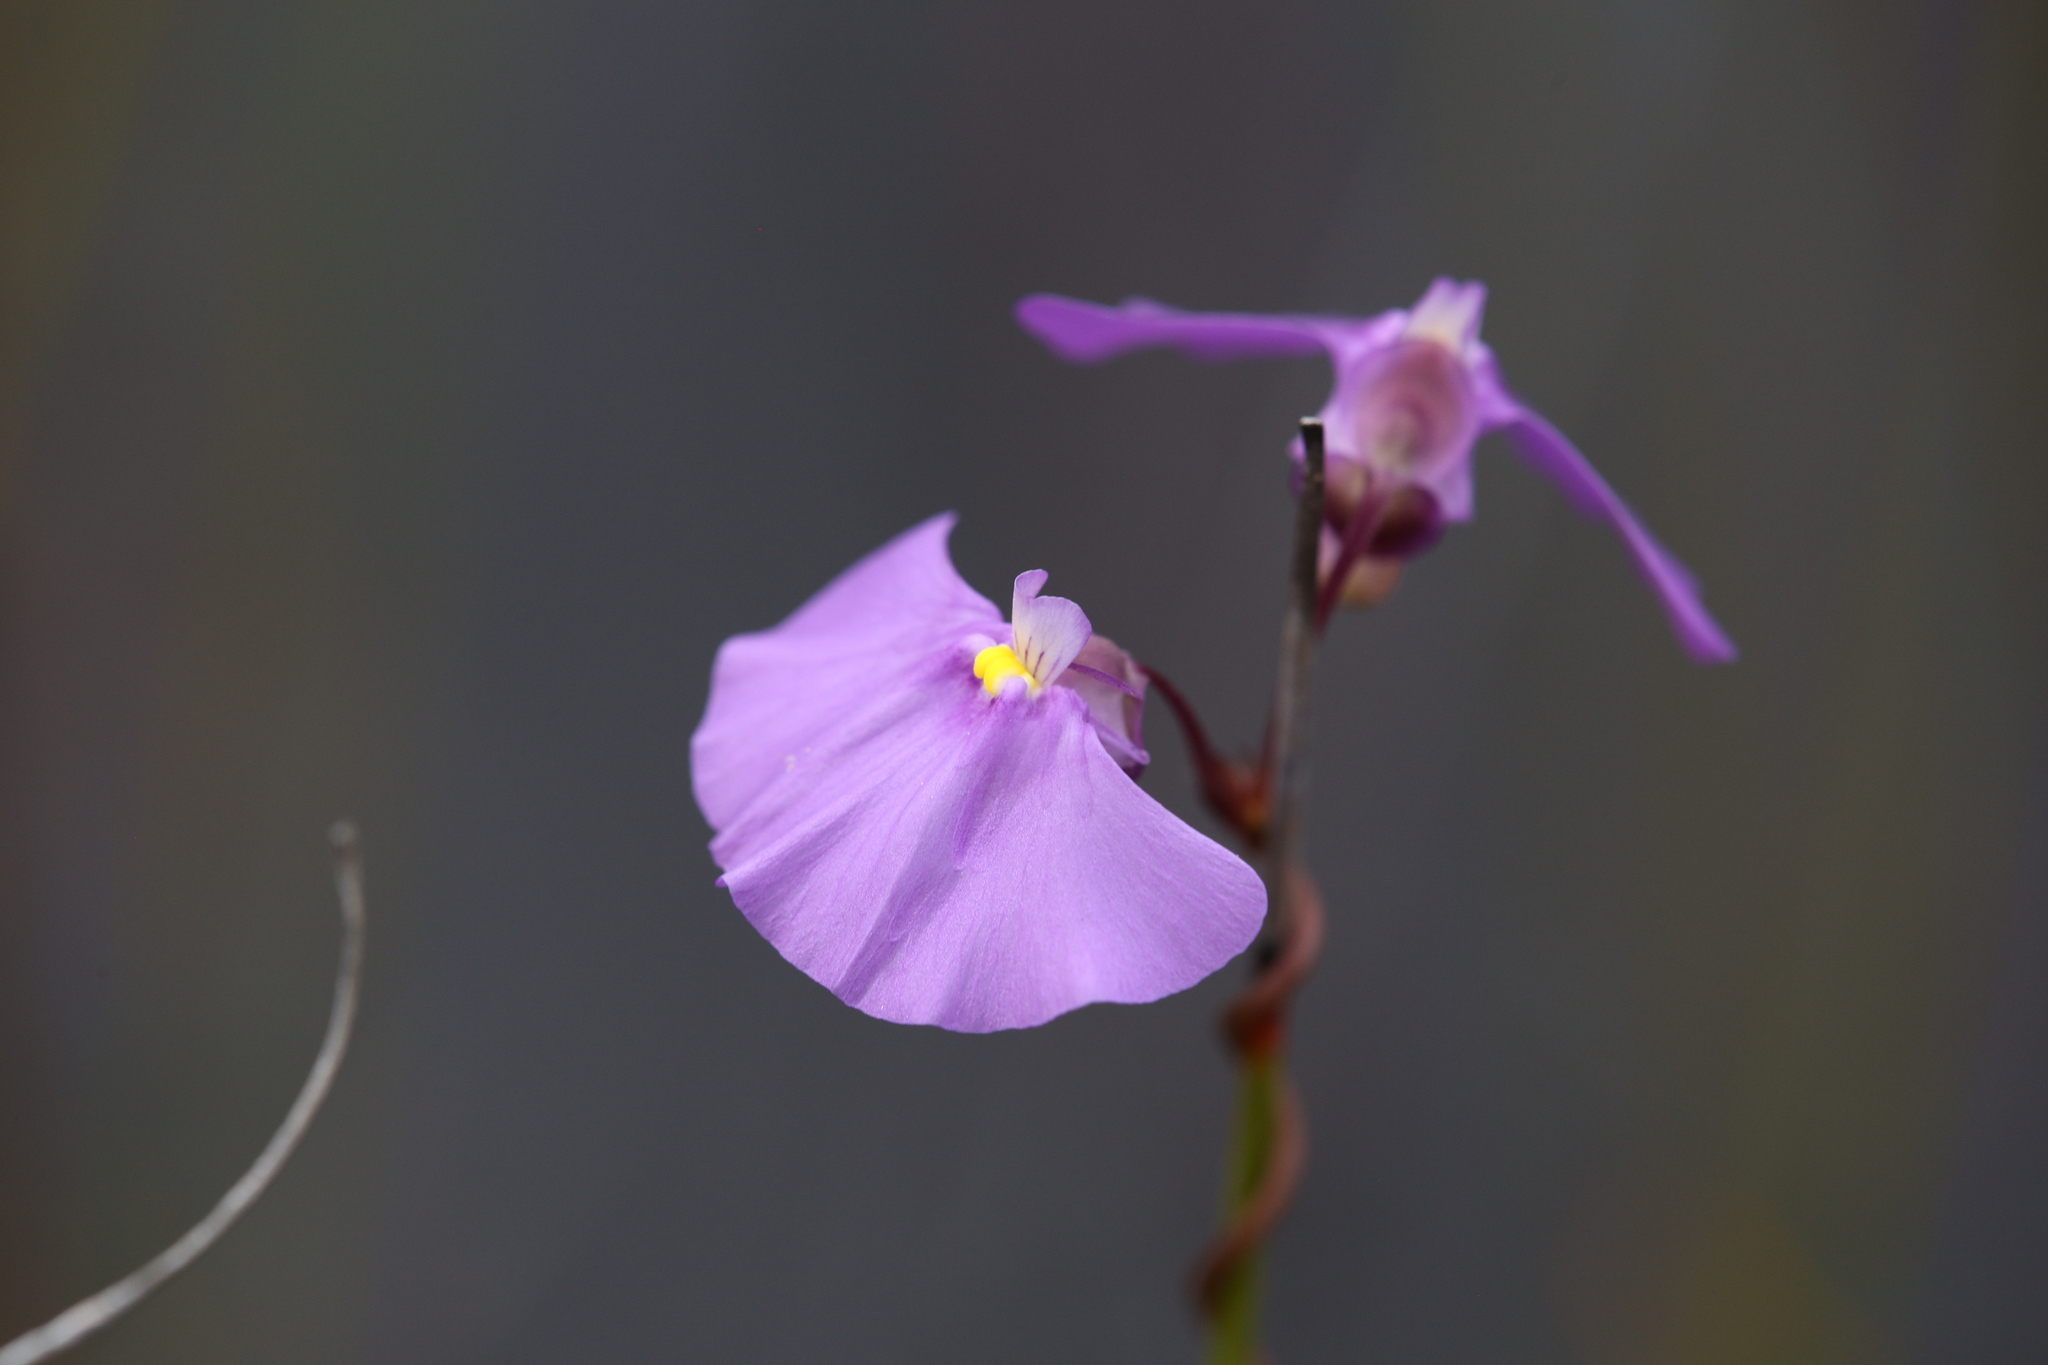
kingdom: Plantae
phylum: Tracheophyta
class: Magnoliopsida
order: Lamiales
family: Lentibulariaceae
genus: Utricularia
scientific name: Utricularia volubilis
